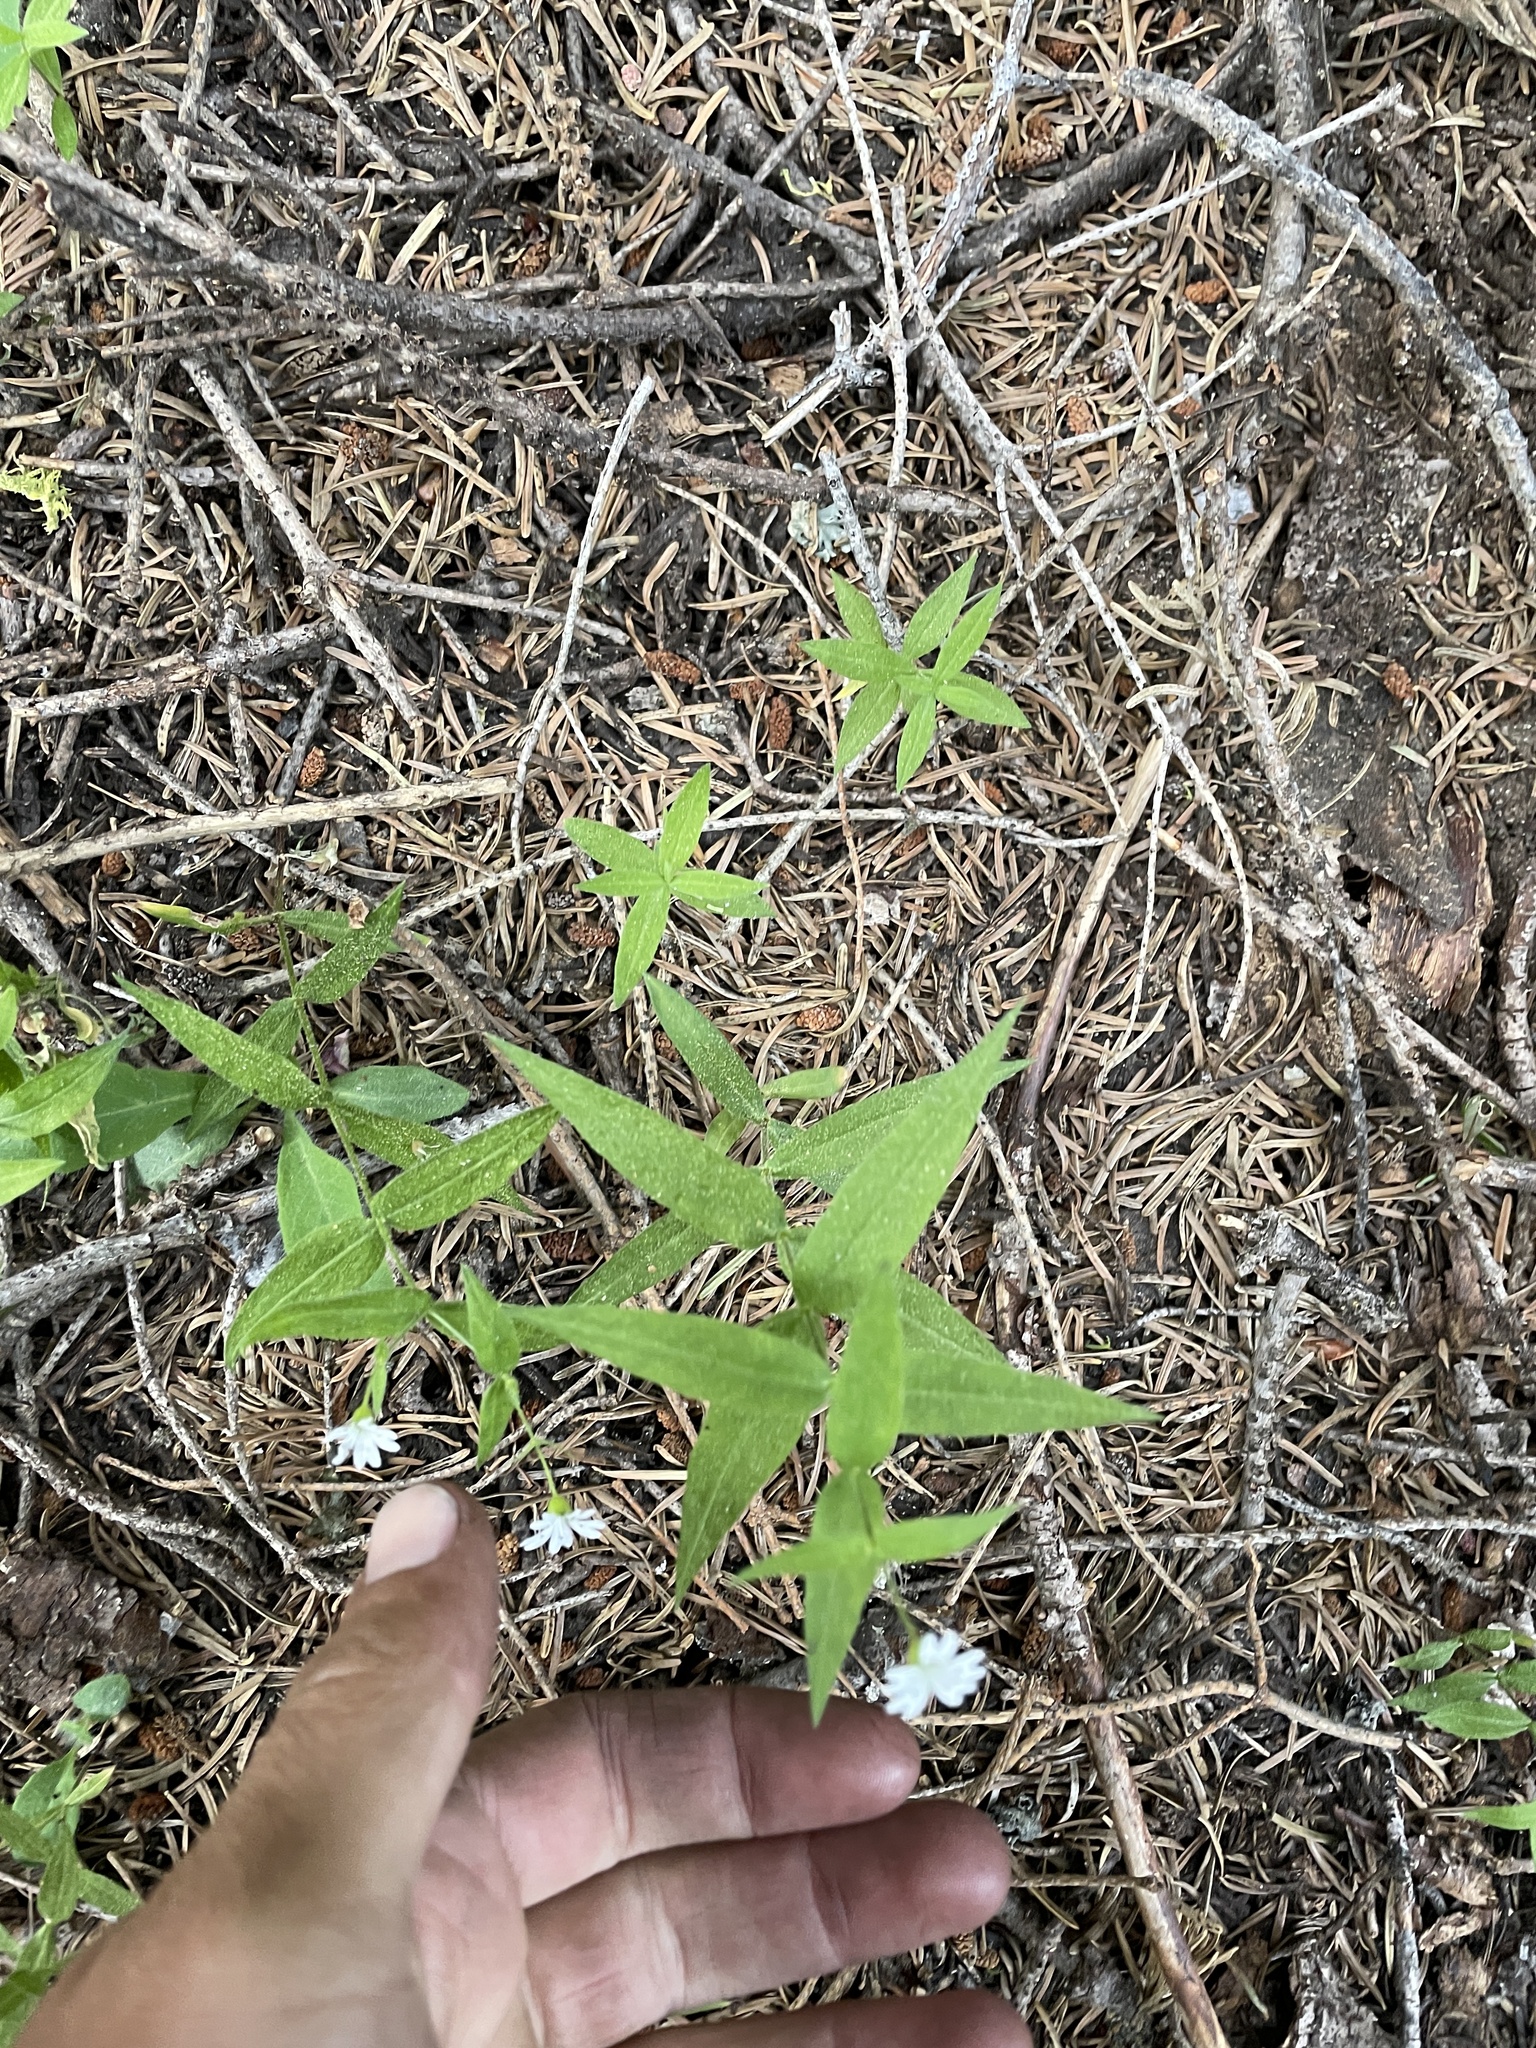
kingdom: Plantae
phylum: Tracheophyta
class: Magnoliopsida
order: Caryophyllales
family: Caryophyllaceae
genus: Schizotechium
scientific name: Schizotechium jamesianum
